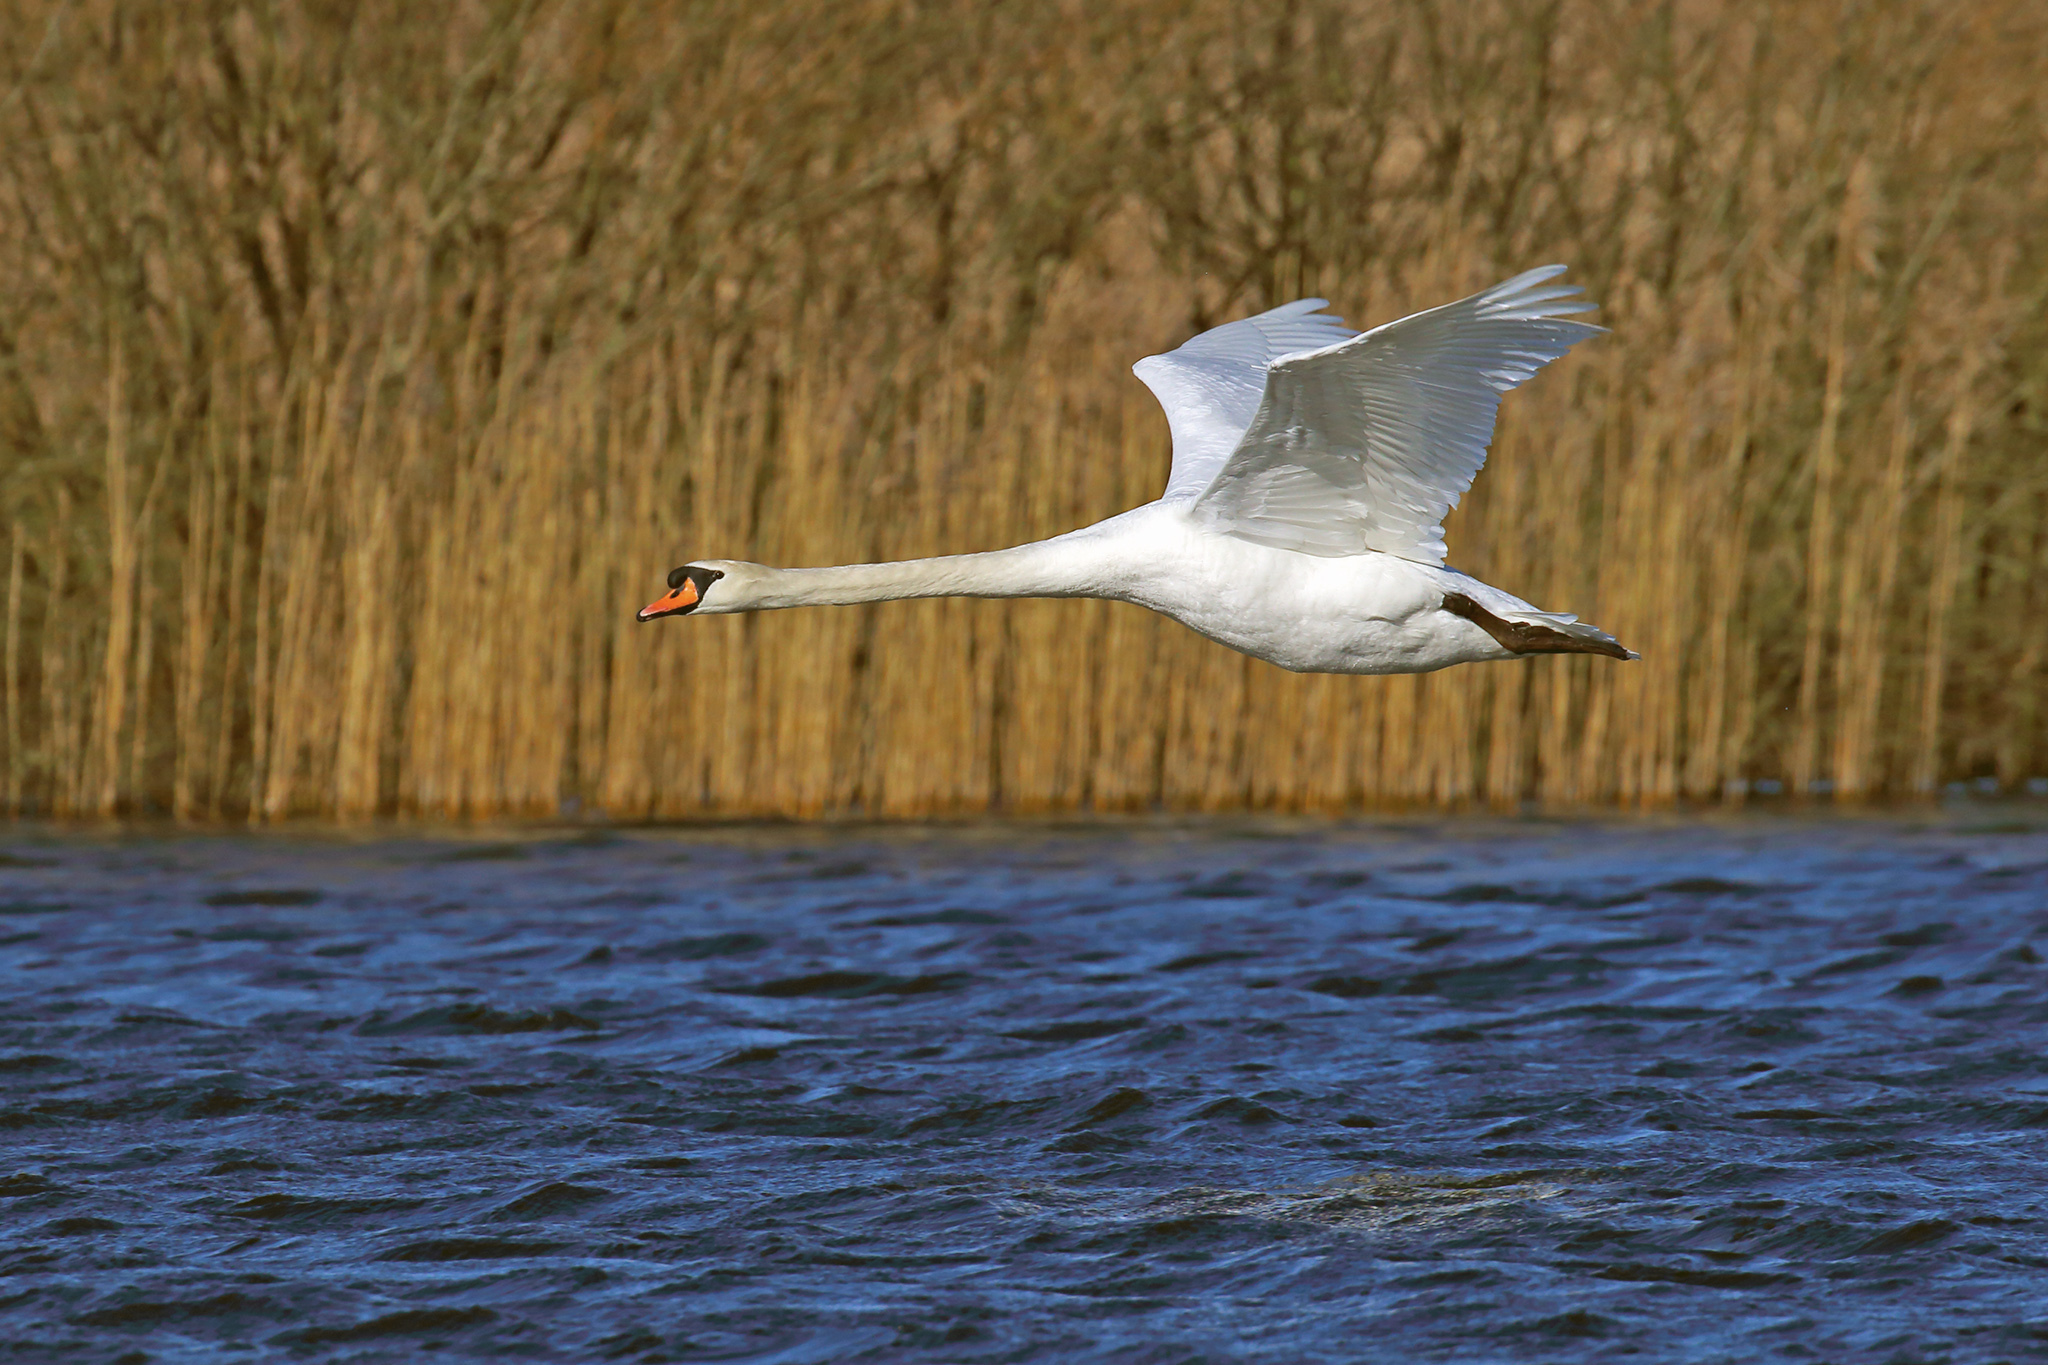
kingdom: Animalia
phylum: Chordata
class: Aves
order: Anseriformes
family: Anatidae
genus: Cygnus
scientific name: Cygnus olor
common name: Mute swan
